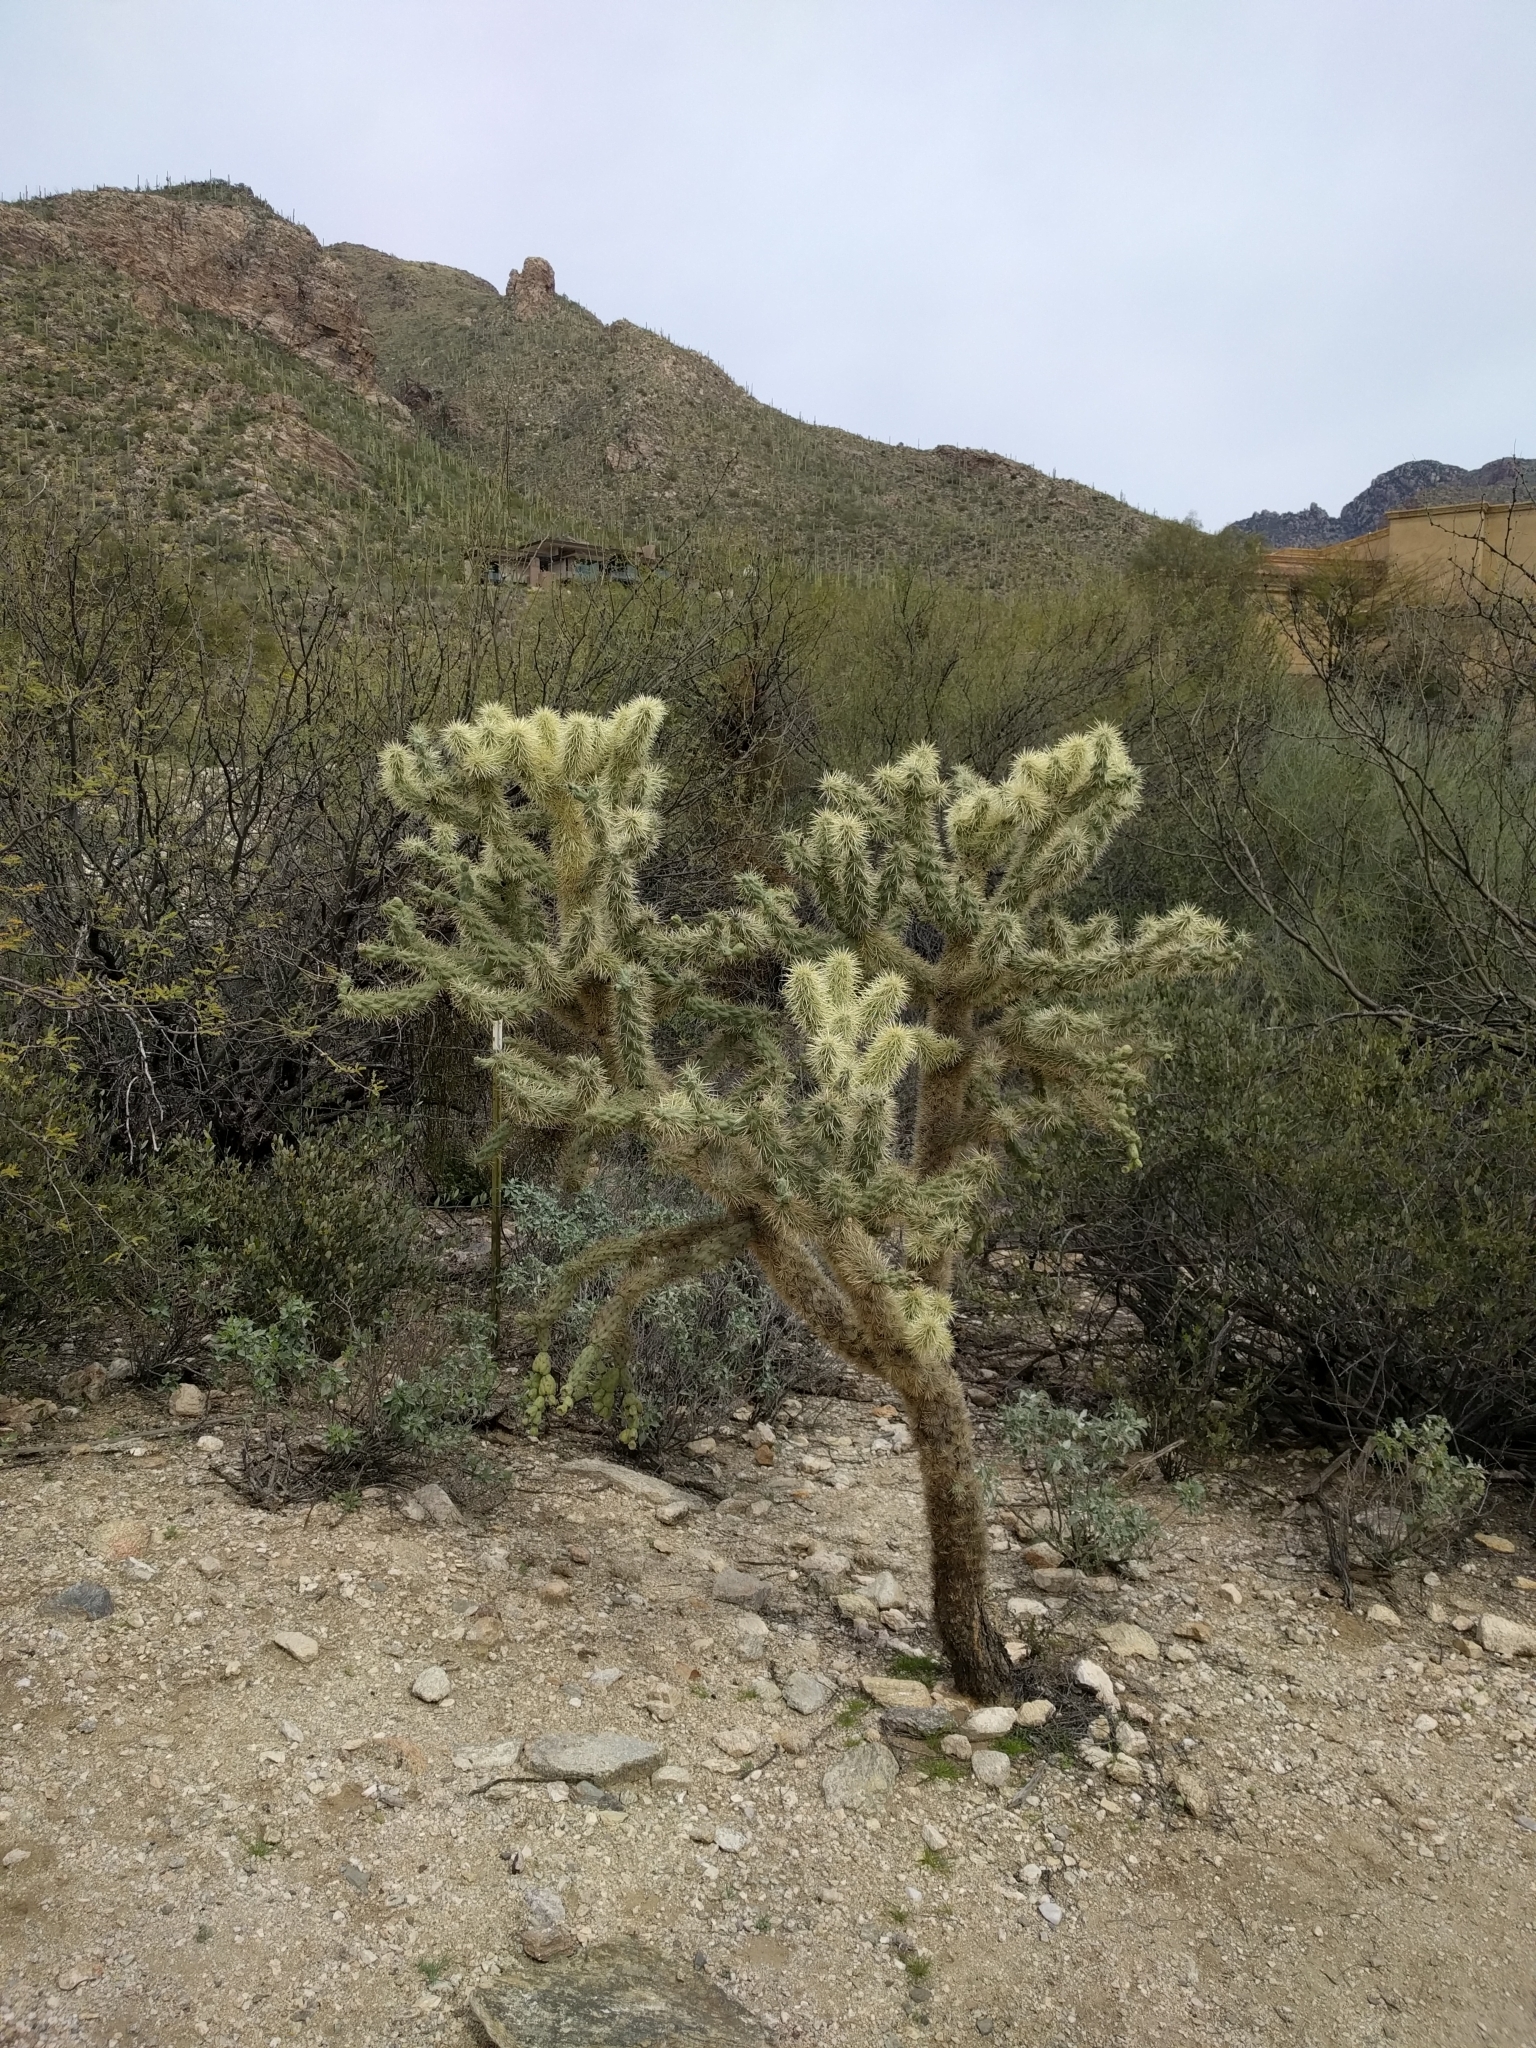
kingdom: Plantae
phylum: Tracheophyta
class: Magnoliopsida
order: Caryophyllales
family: Cactaceae
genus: Cylindropuntia
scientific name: Cylindropuntia fulgida
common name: Jumping cholla
